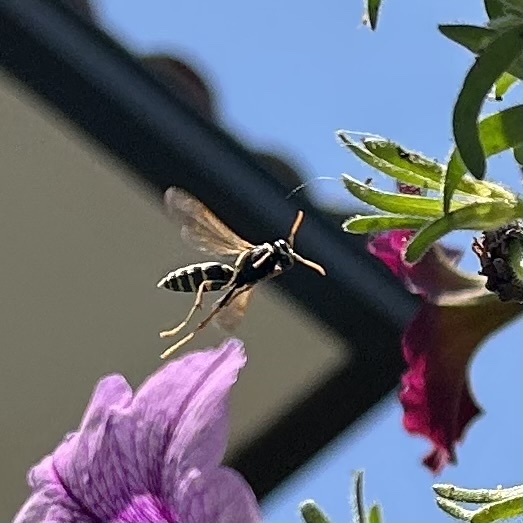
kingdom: Animalia
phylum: Arthropoda
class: Insecta
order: Hymenoptera
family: Eumenidae
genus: Polistes
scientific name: Polistes dominula
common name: Paper wasp
